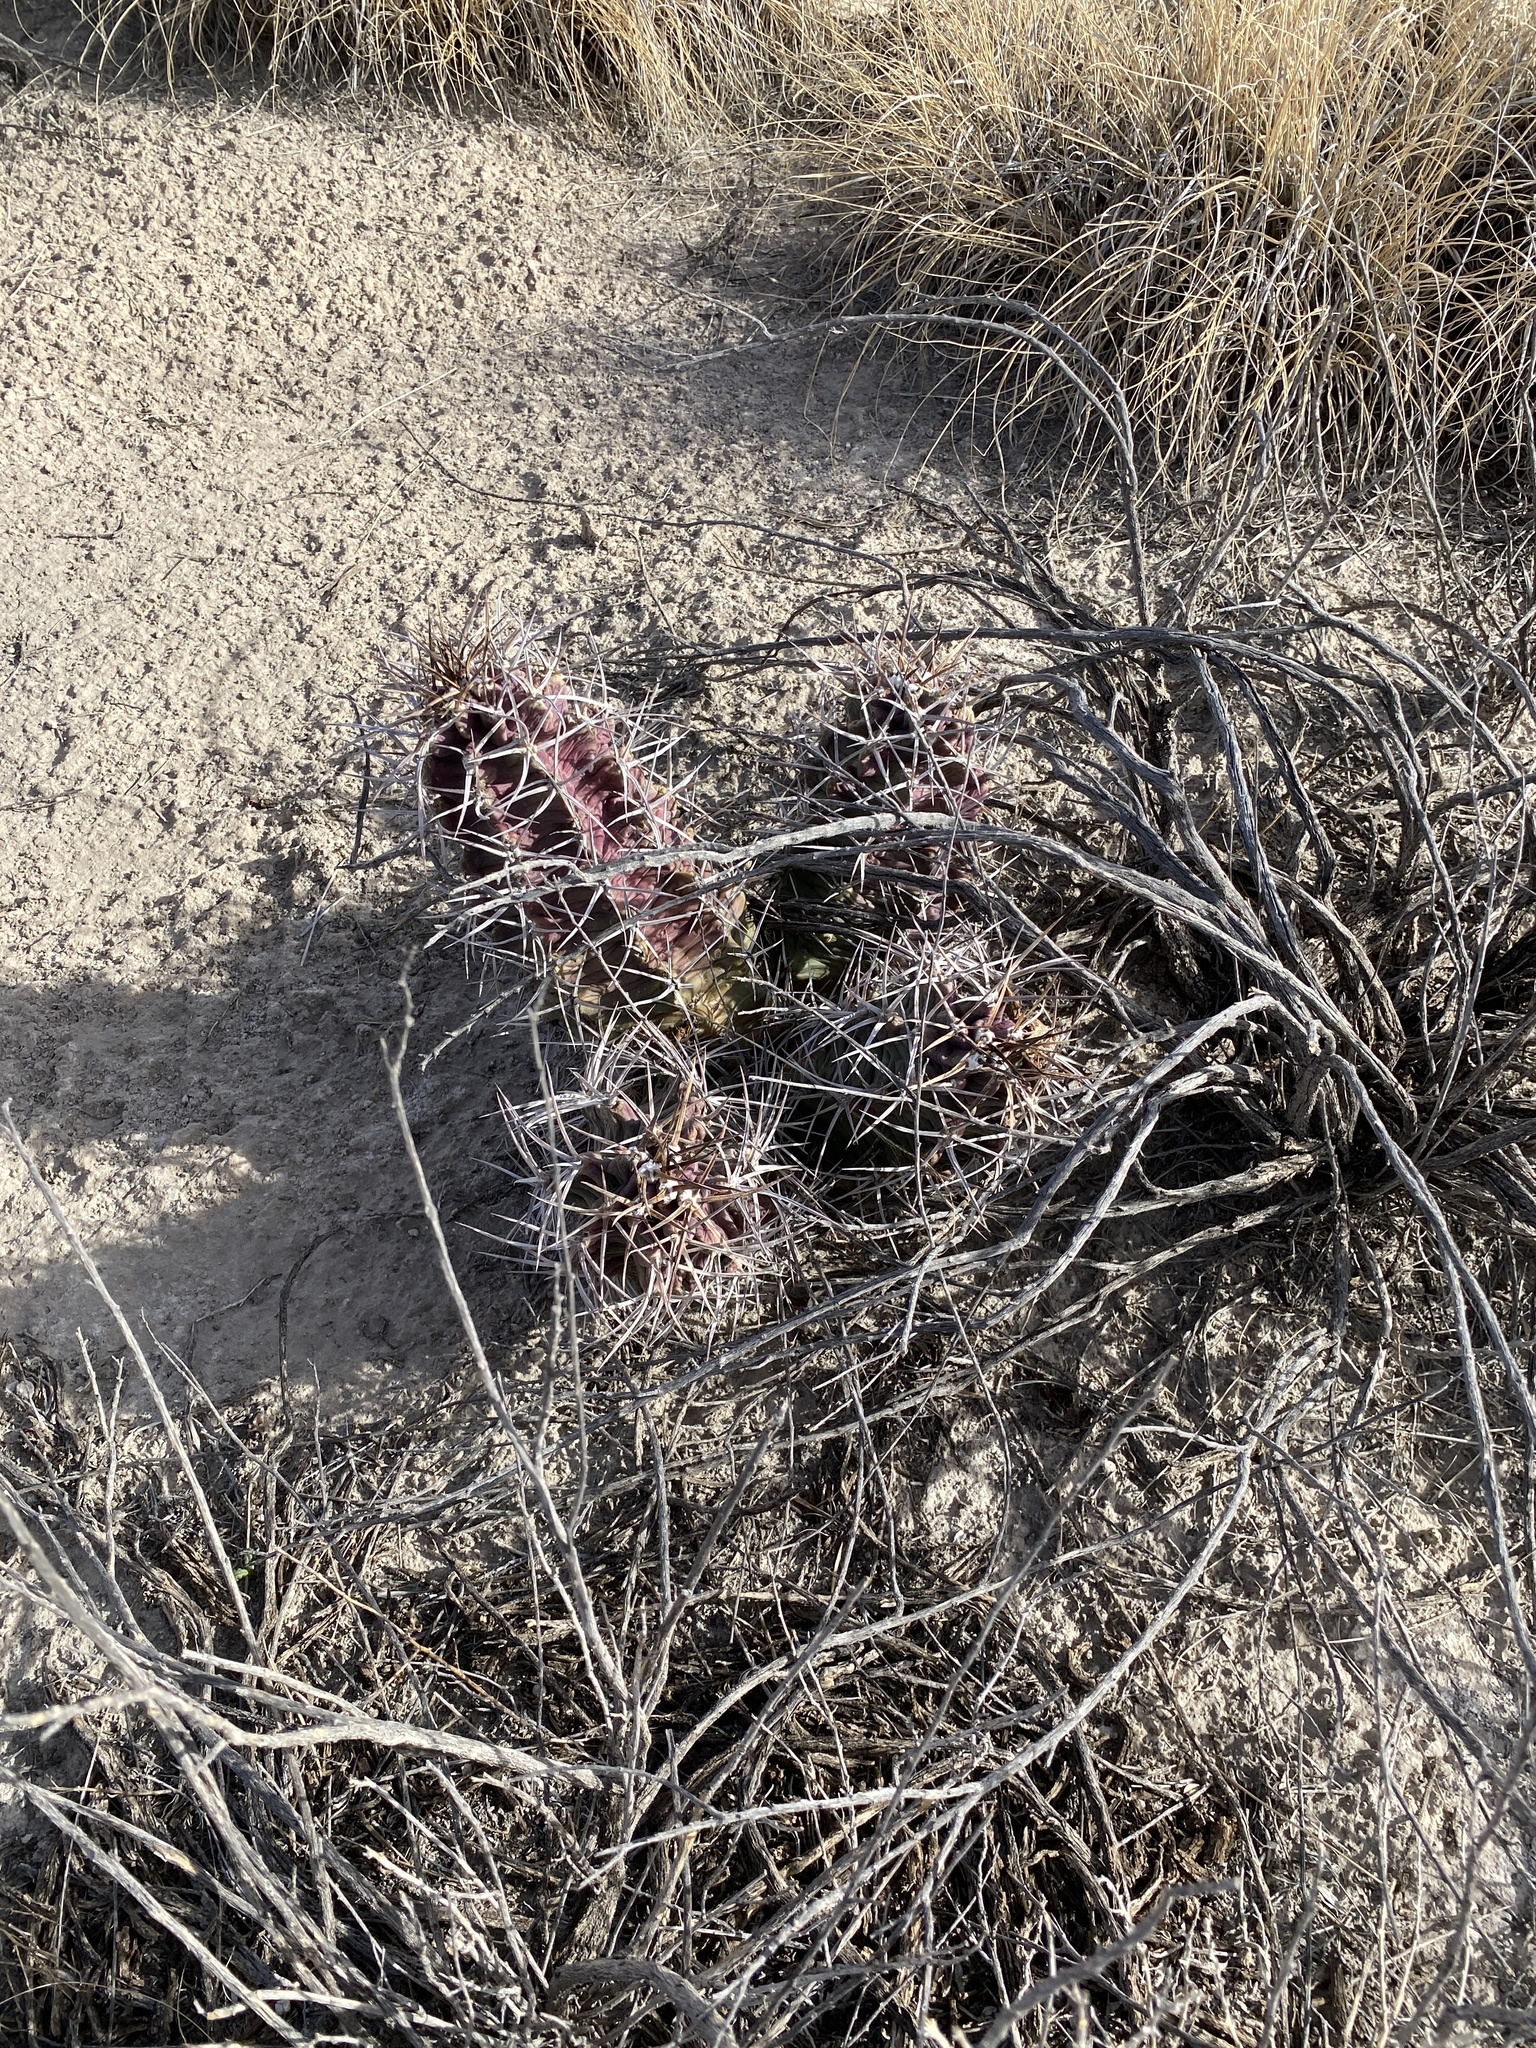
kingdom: Plantae
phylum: Tracheophyta
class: Magnoliopsida
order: Caryophyllales
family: Cactaceae
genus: Echinocereus
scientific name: Echinocereus triglochidiatus
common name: Claretcup hedgehog
